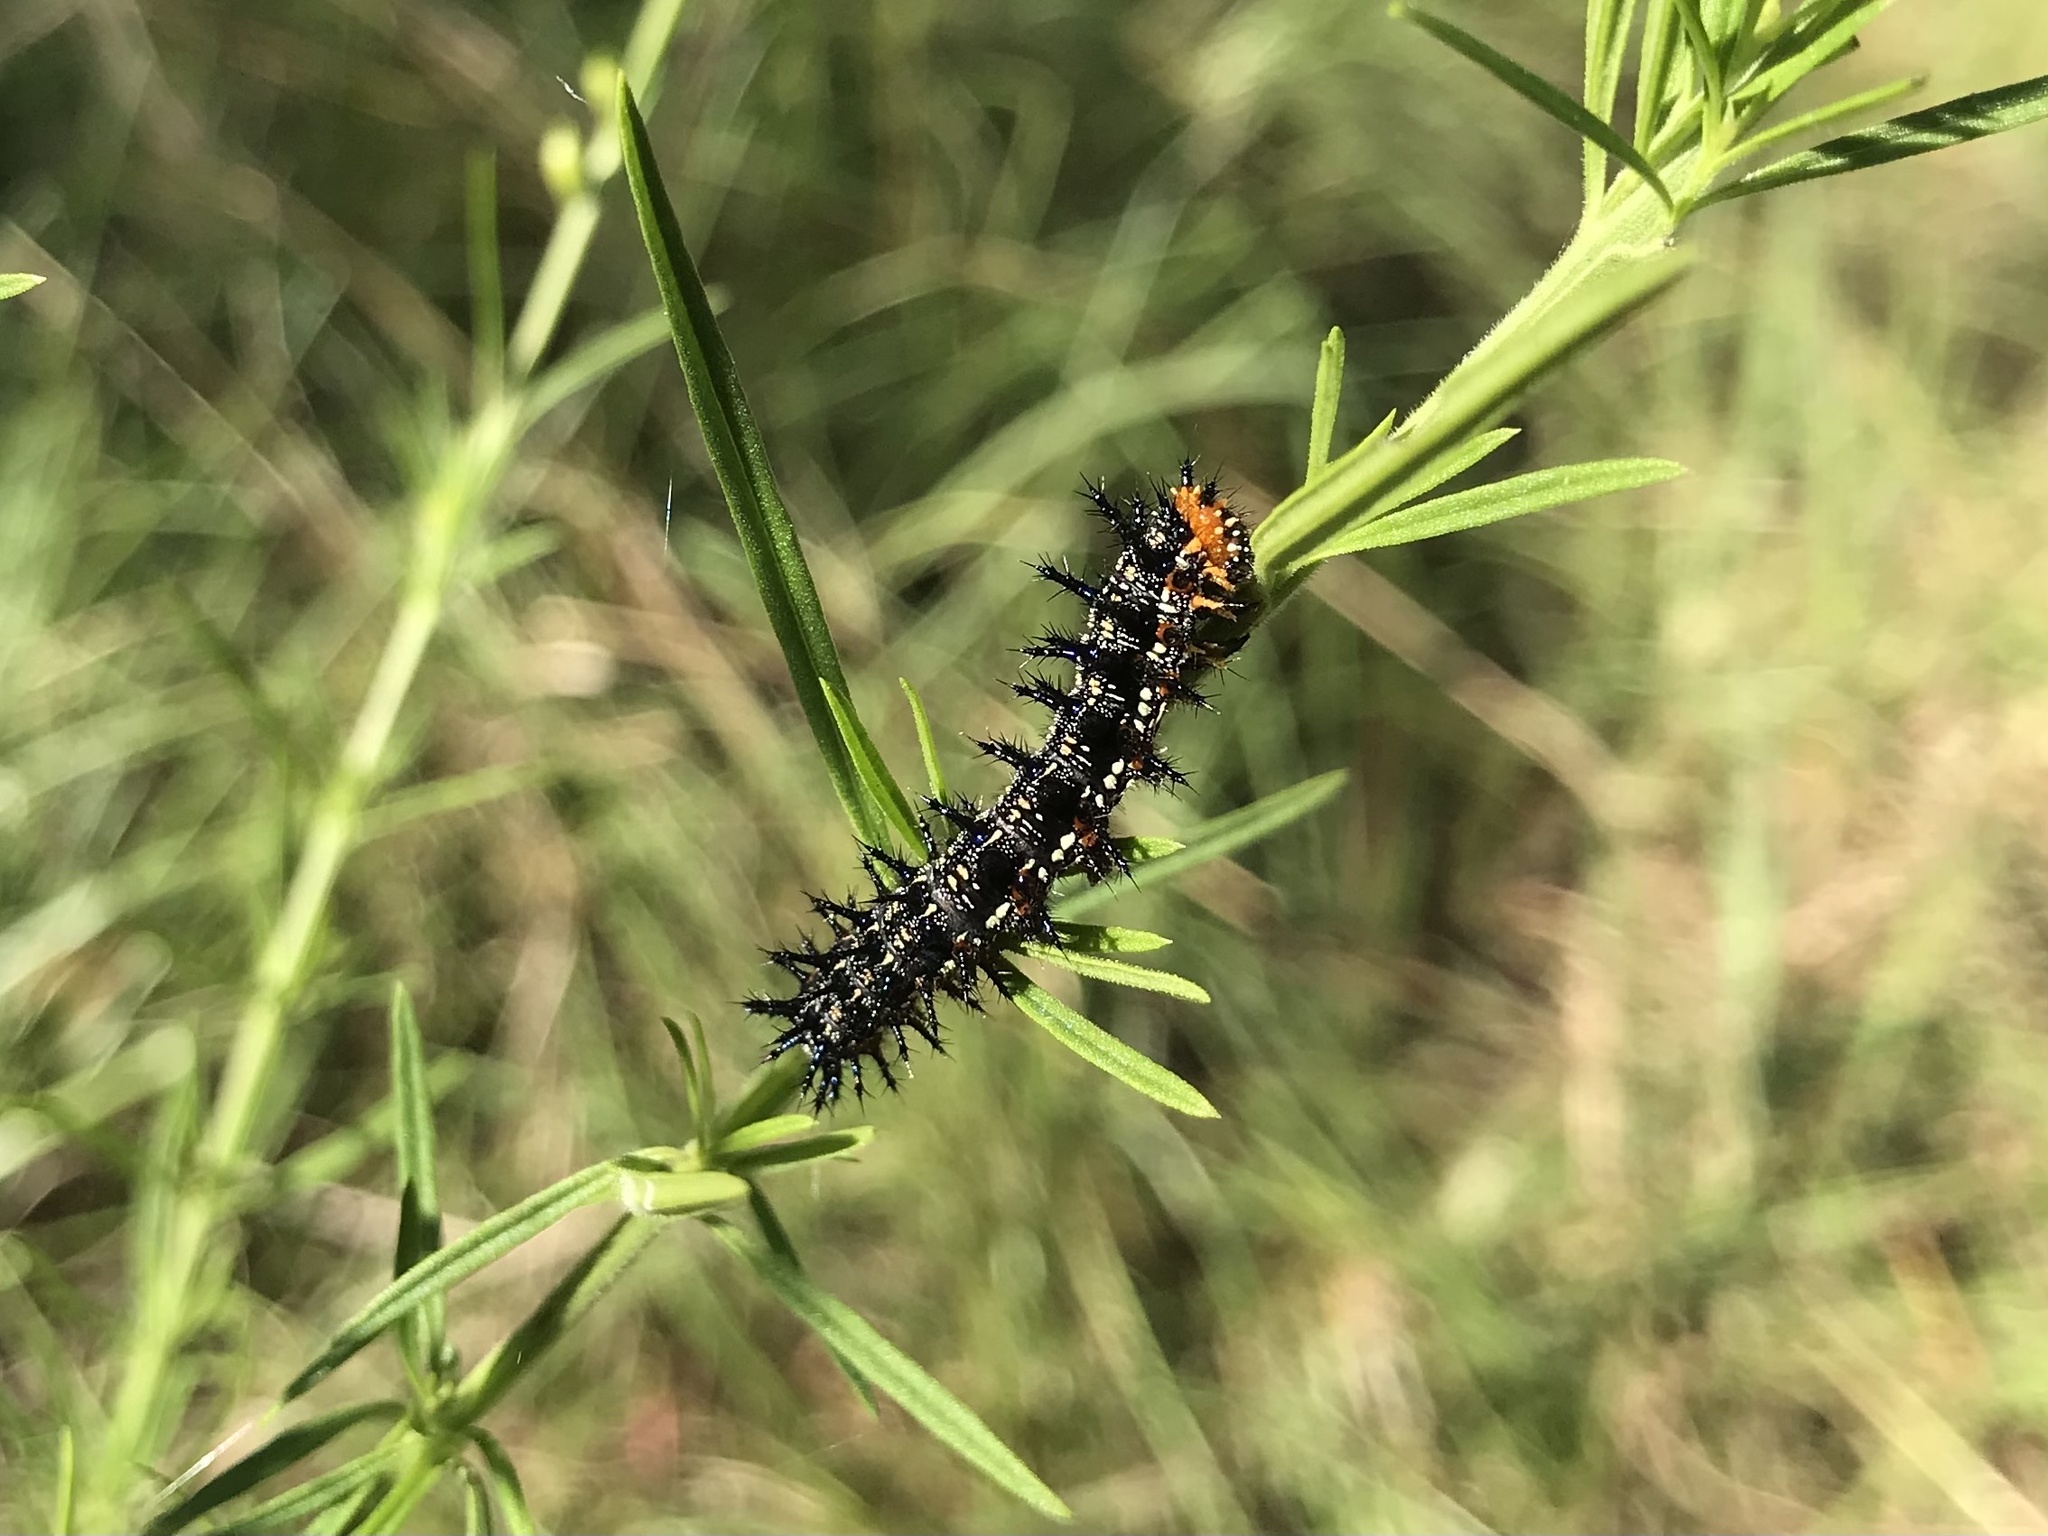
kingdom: Animalia
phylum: Arthropoda
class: Insecta
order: Lepidoptera
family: Nymphalidae
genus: Junonia
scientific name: Junonia coenia
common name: Common buckeye
